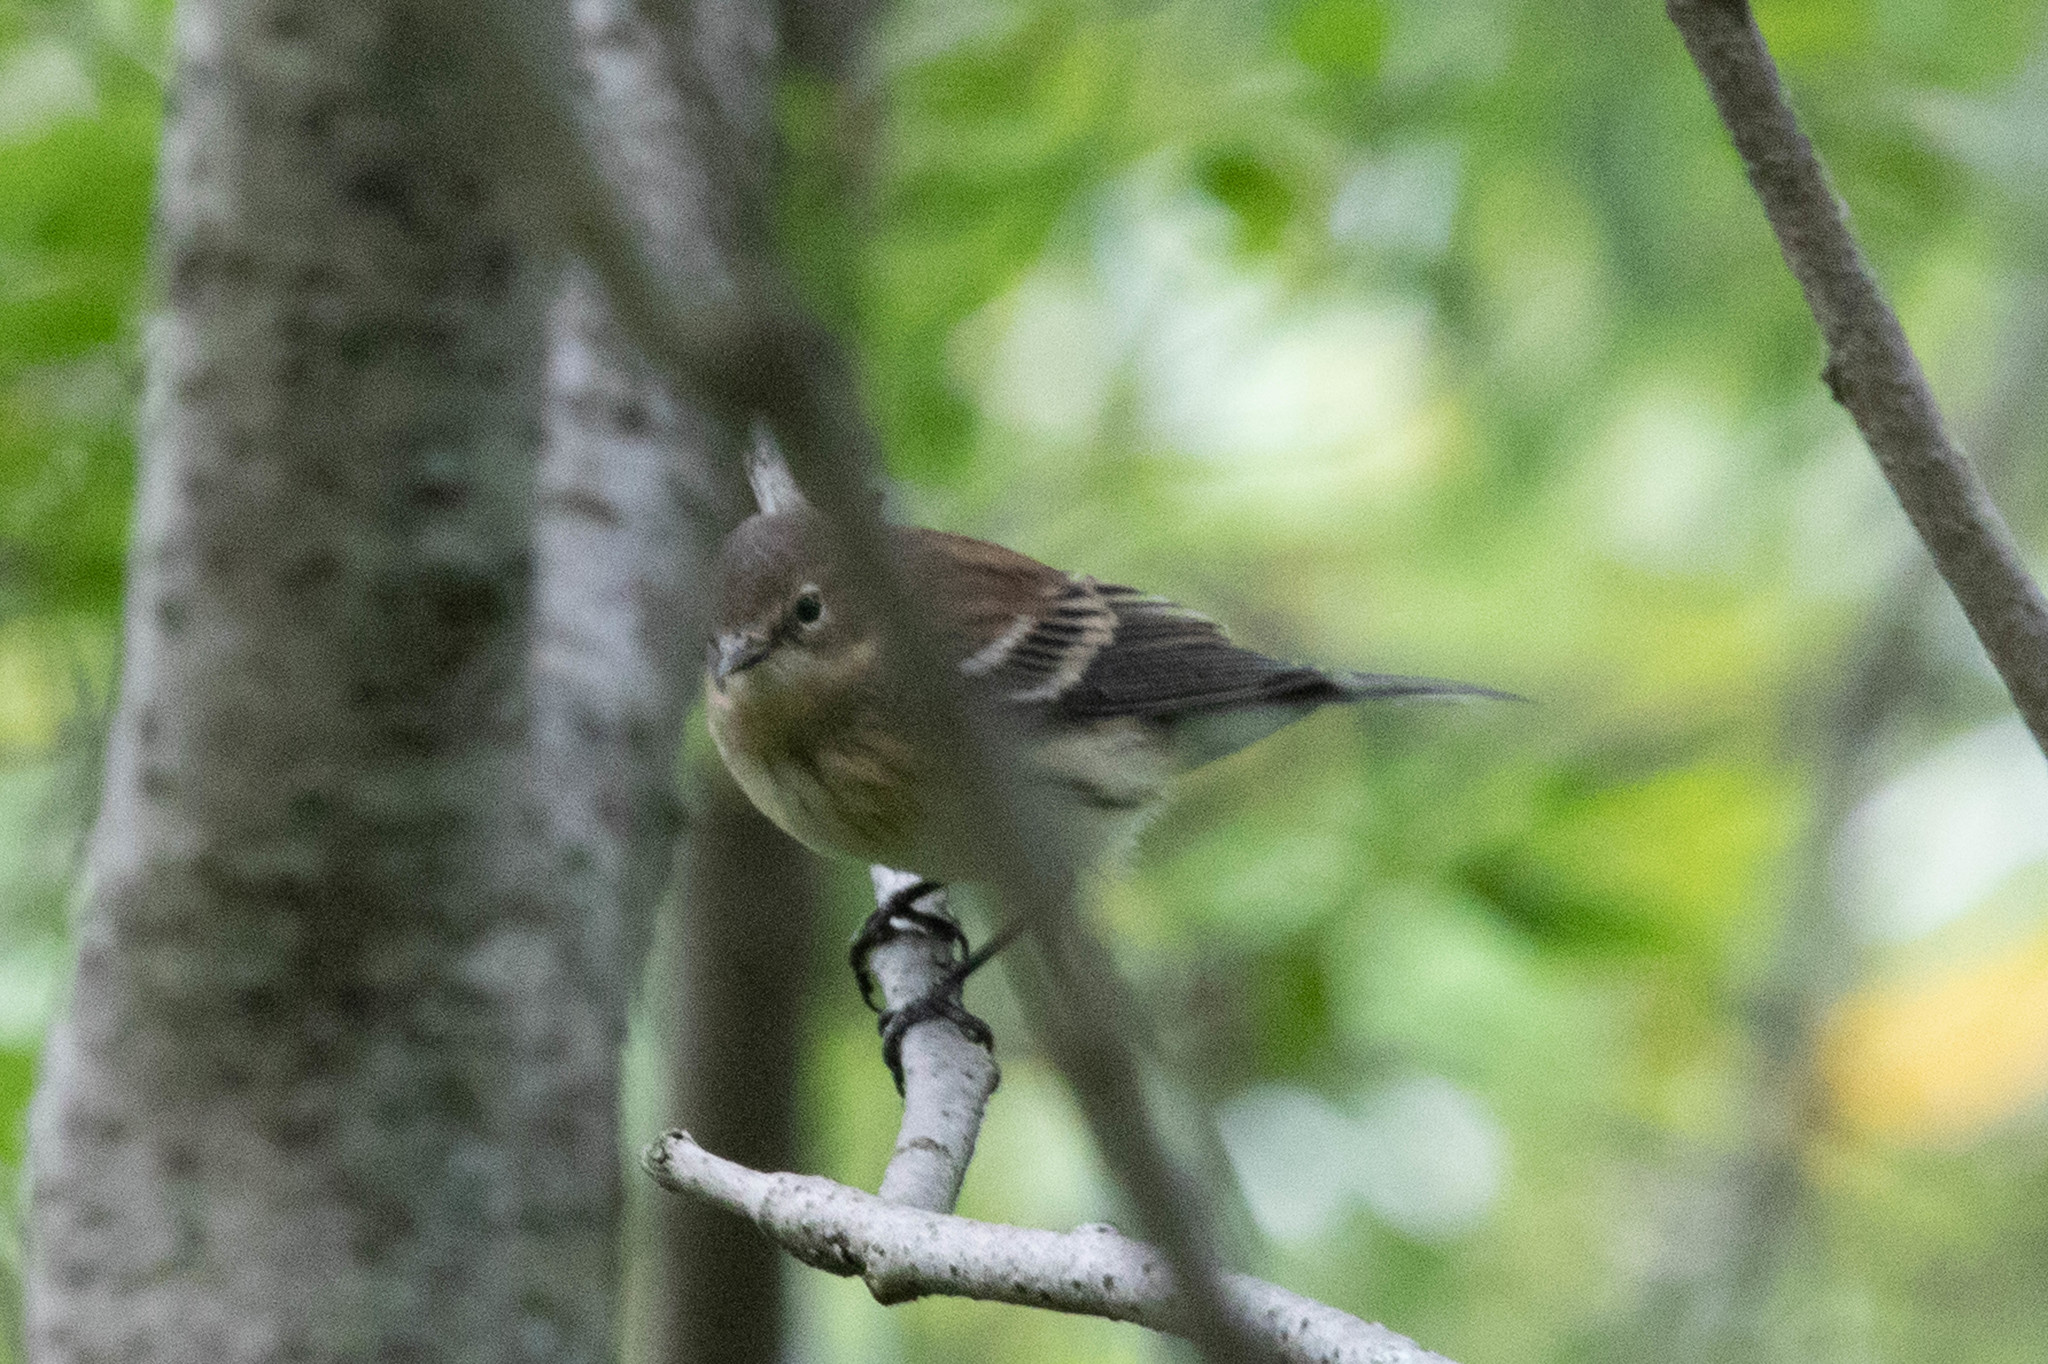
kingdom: Animalia
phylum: Chordata
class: Aves
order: Passeriformes
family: Parulidae
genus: Setophaga
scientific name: Setophaga coronata
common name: Myrtle warbler
